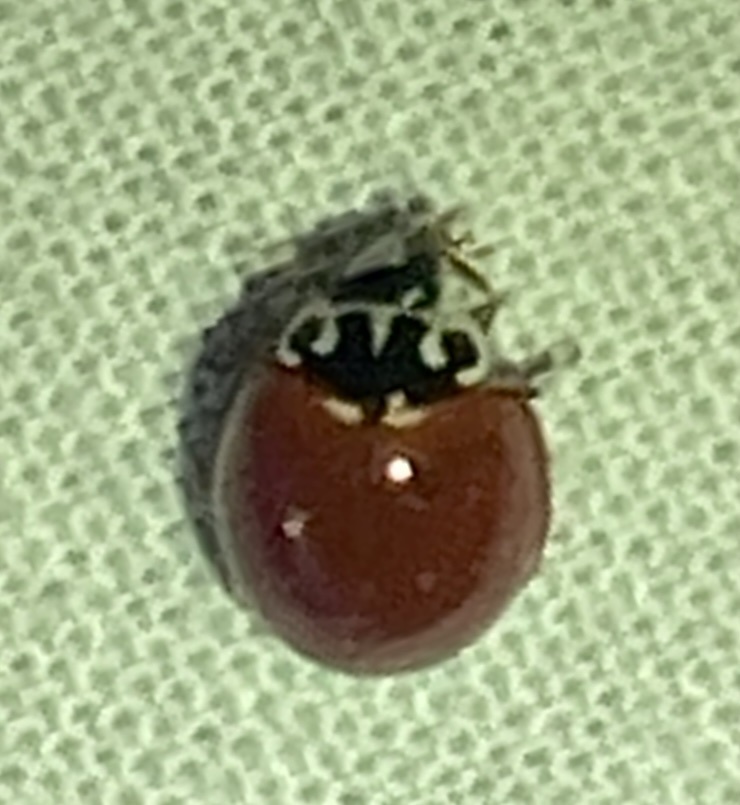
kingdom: Animalia
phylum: Arthropoda
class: Insecta
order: Coleoptera
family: Coccinellidae
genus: Cycloneda
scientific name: Cycloneda polita
